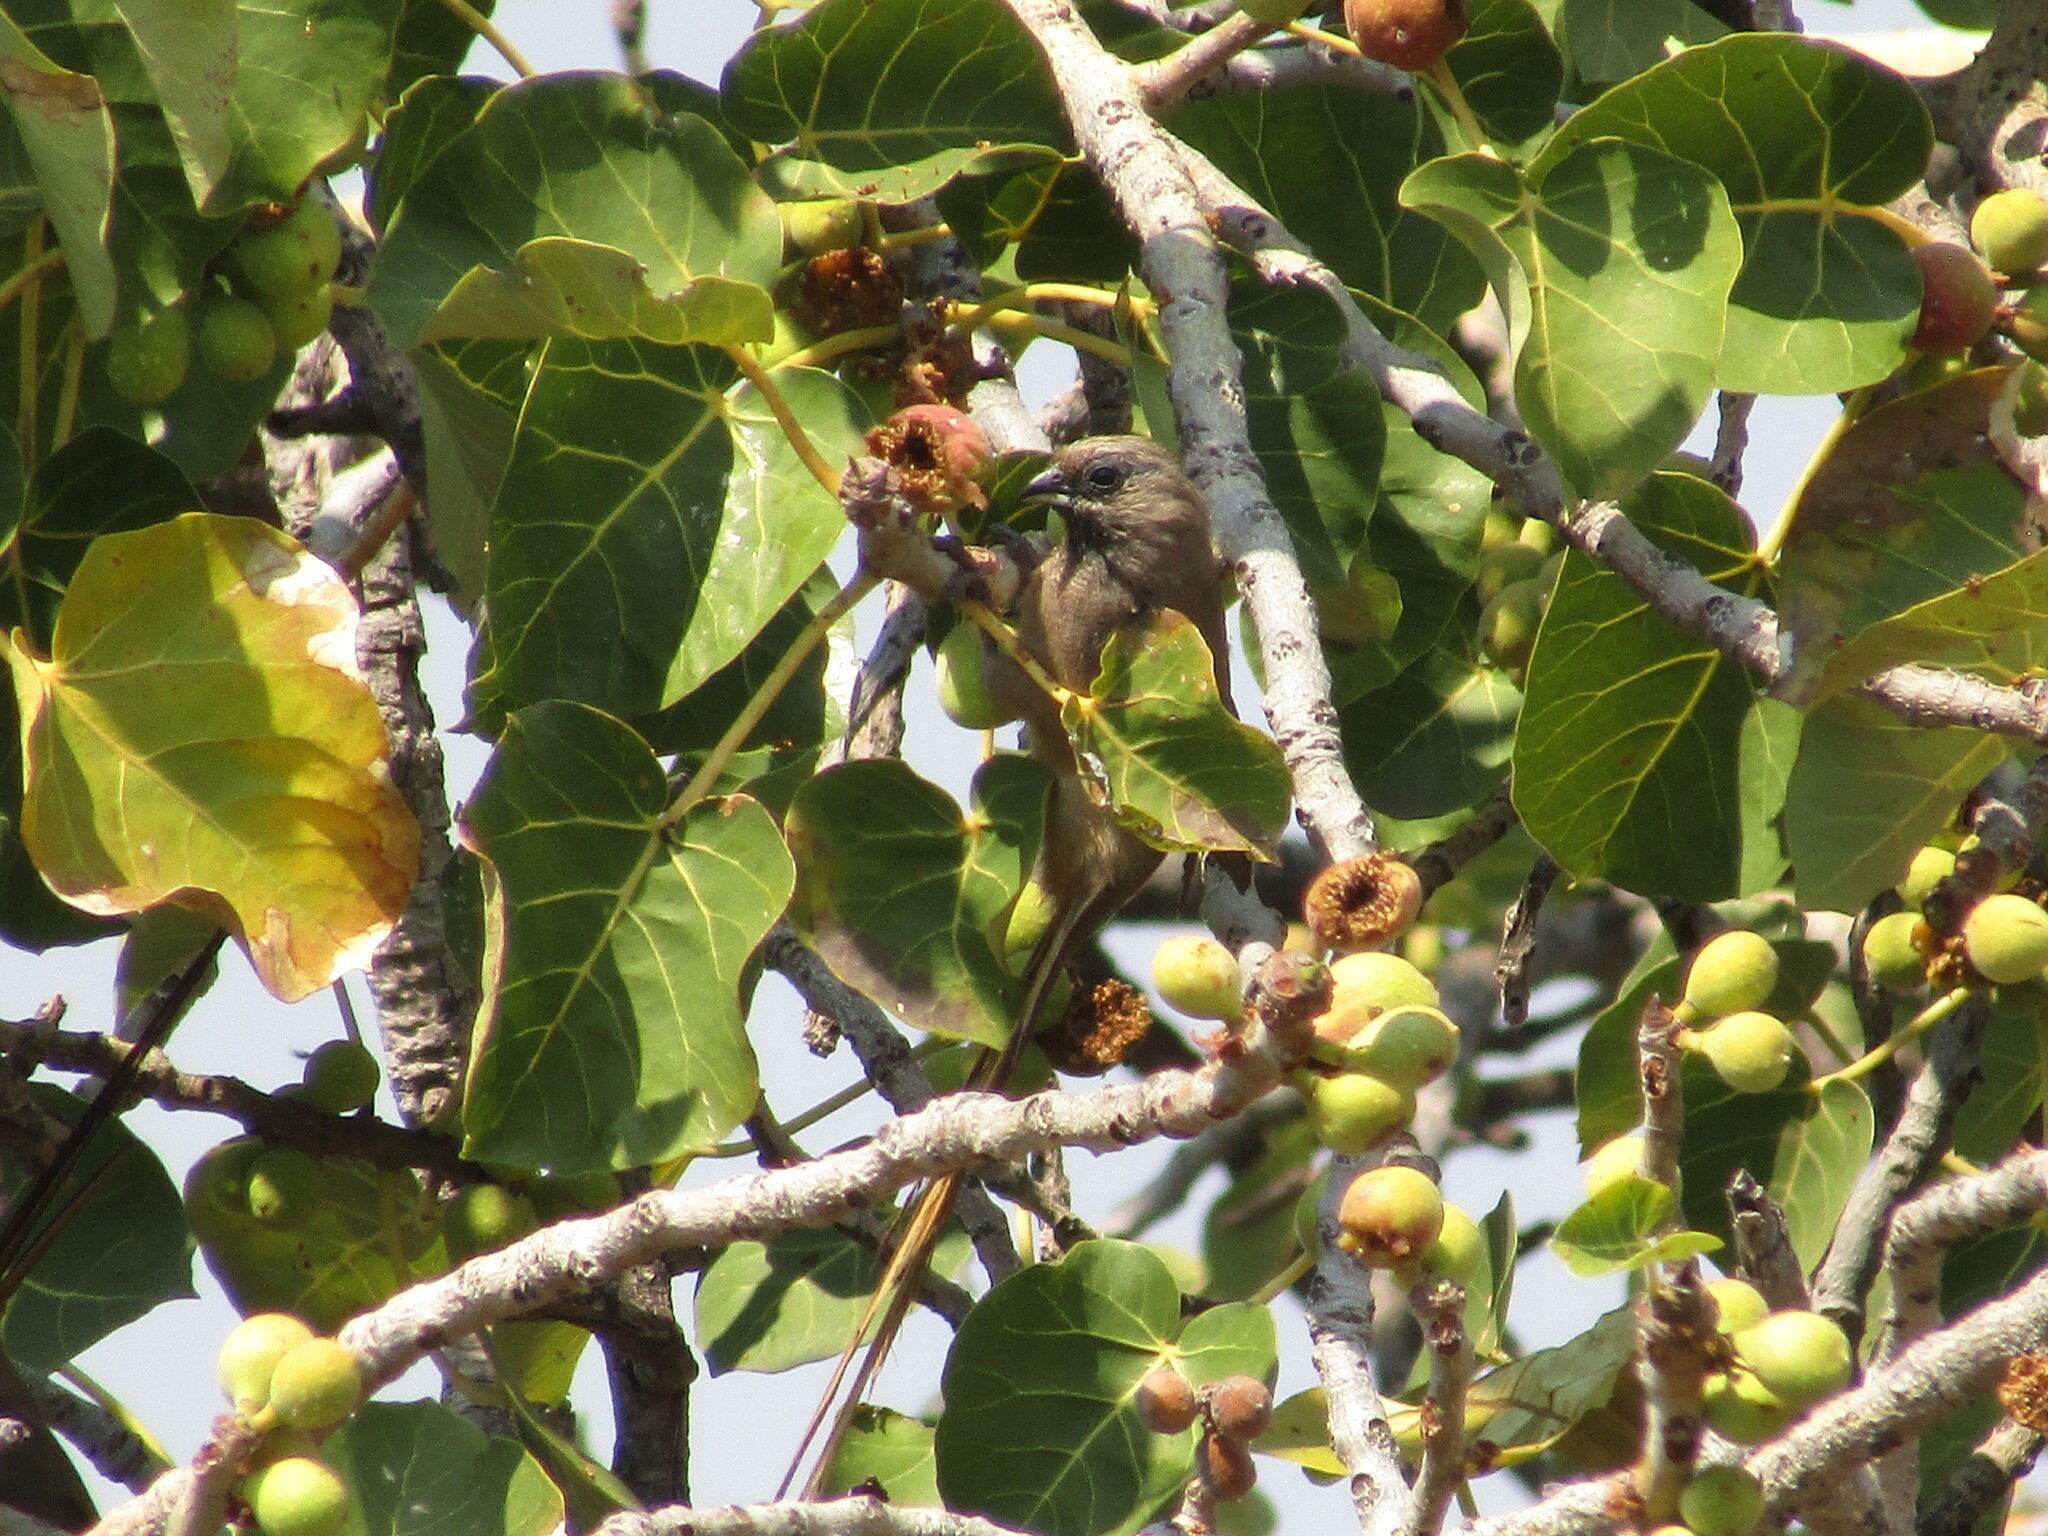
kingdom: Animalia
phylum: Chordata
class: Aves
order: Coliiformes
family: Coliidae
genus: Colius
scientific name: Colius striatus
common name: Speckled mousebird
